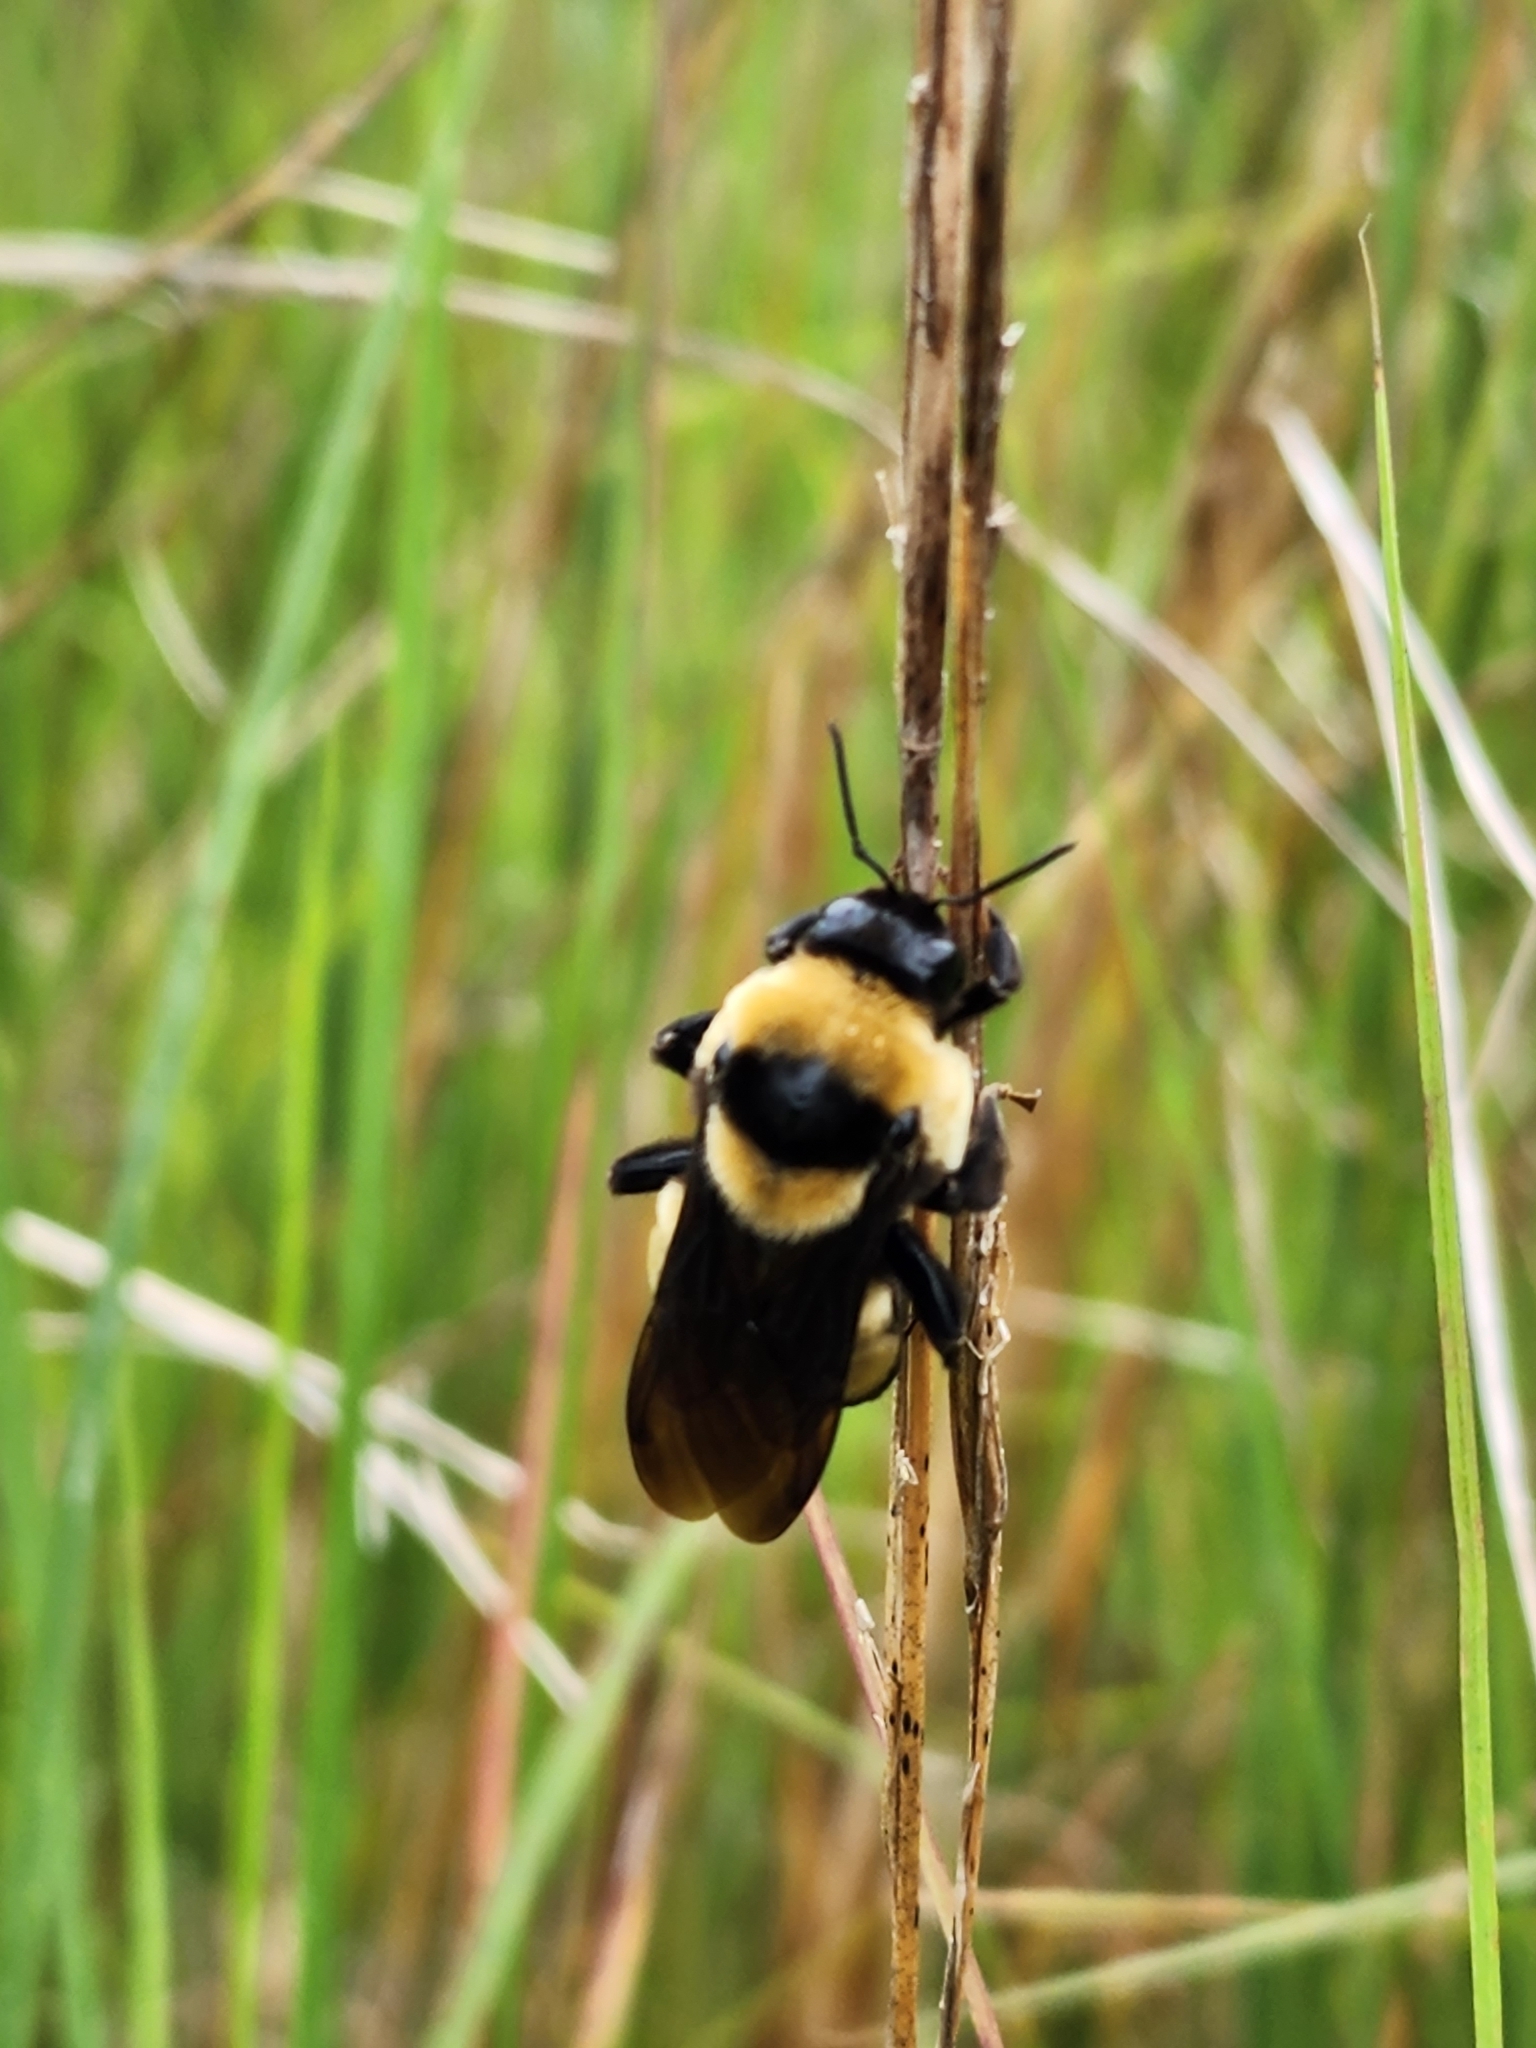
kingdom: Animalia
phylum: Arthropoda
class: Insecta
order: Hymenoptera
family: Apidae
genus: Bombus
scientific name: Bombus fraternus
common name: Southern plains bumble bee
